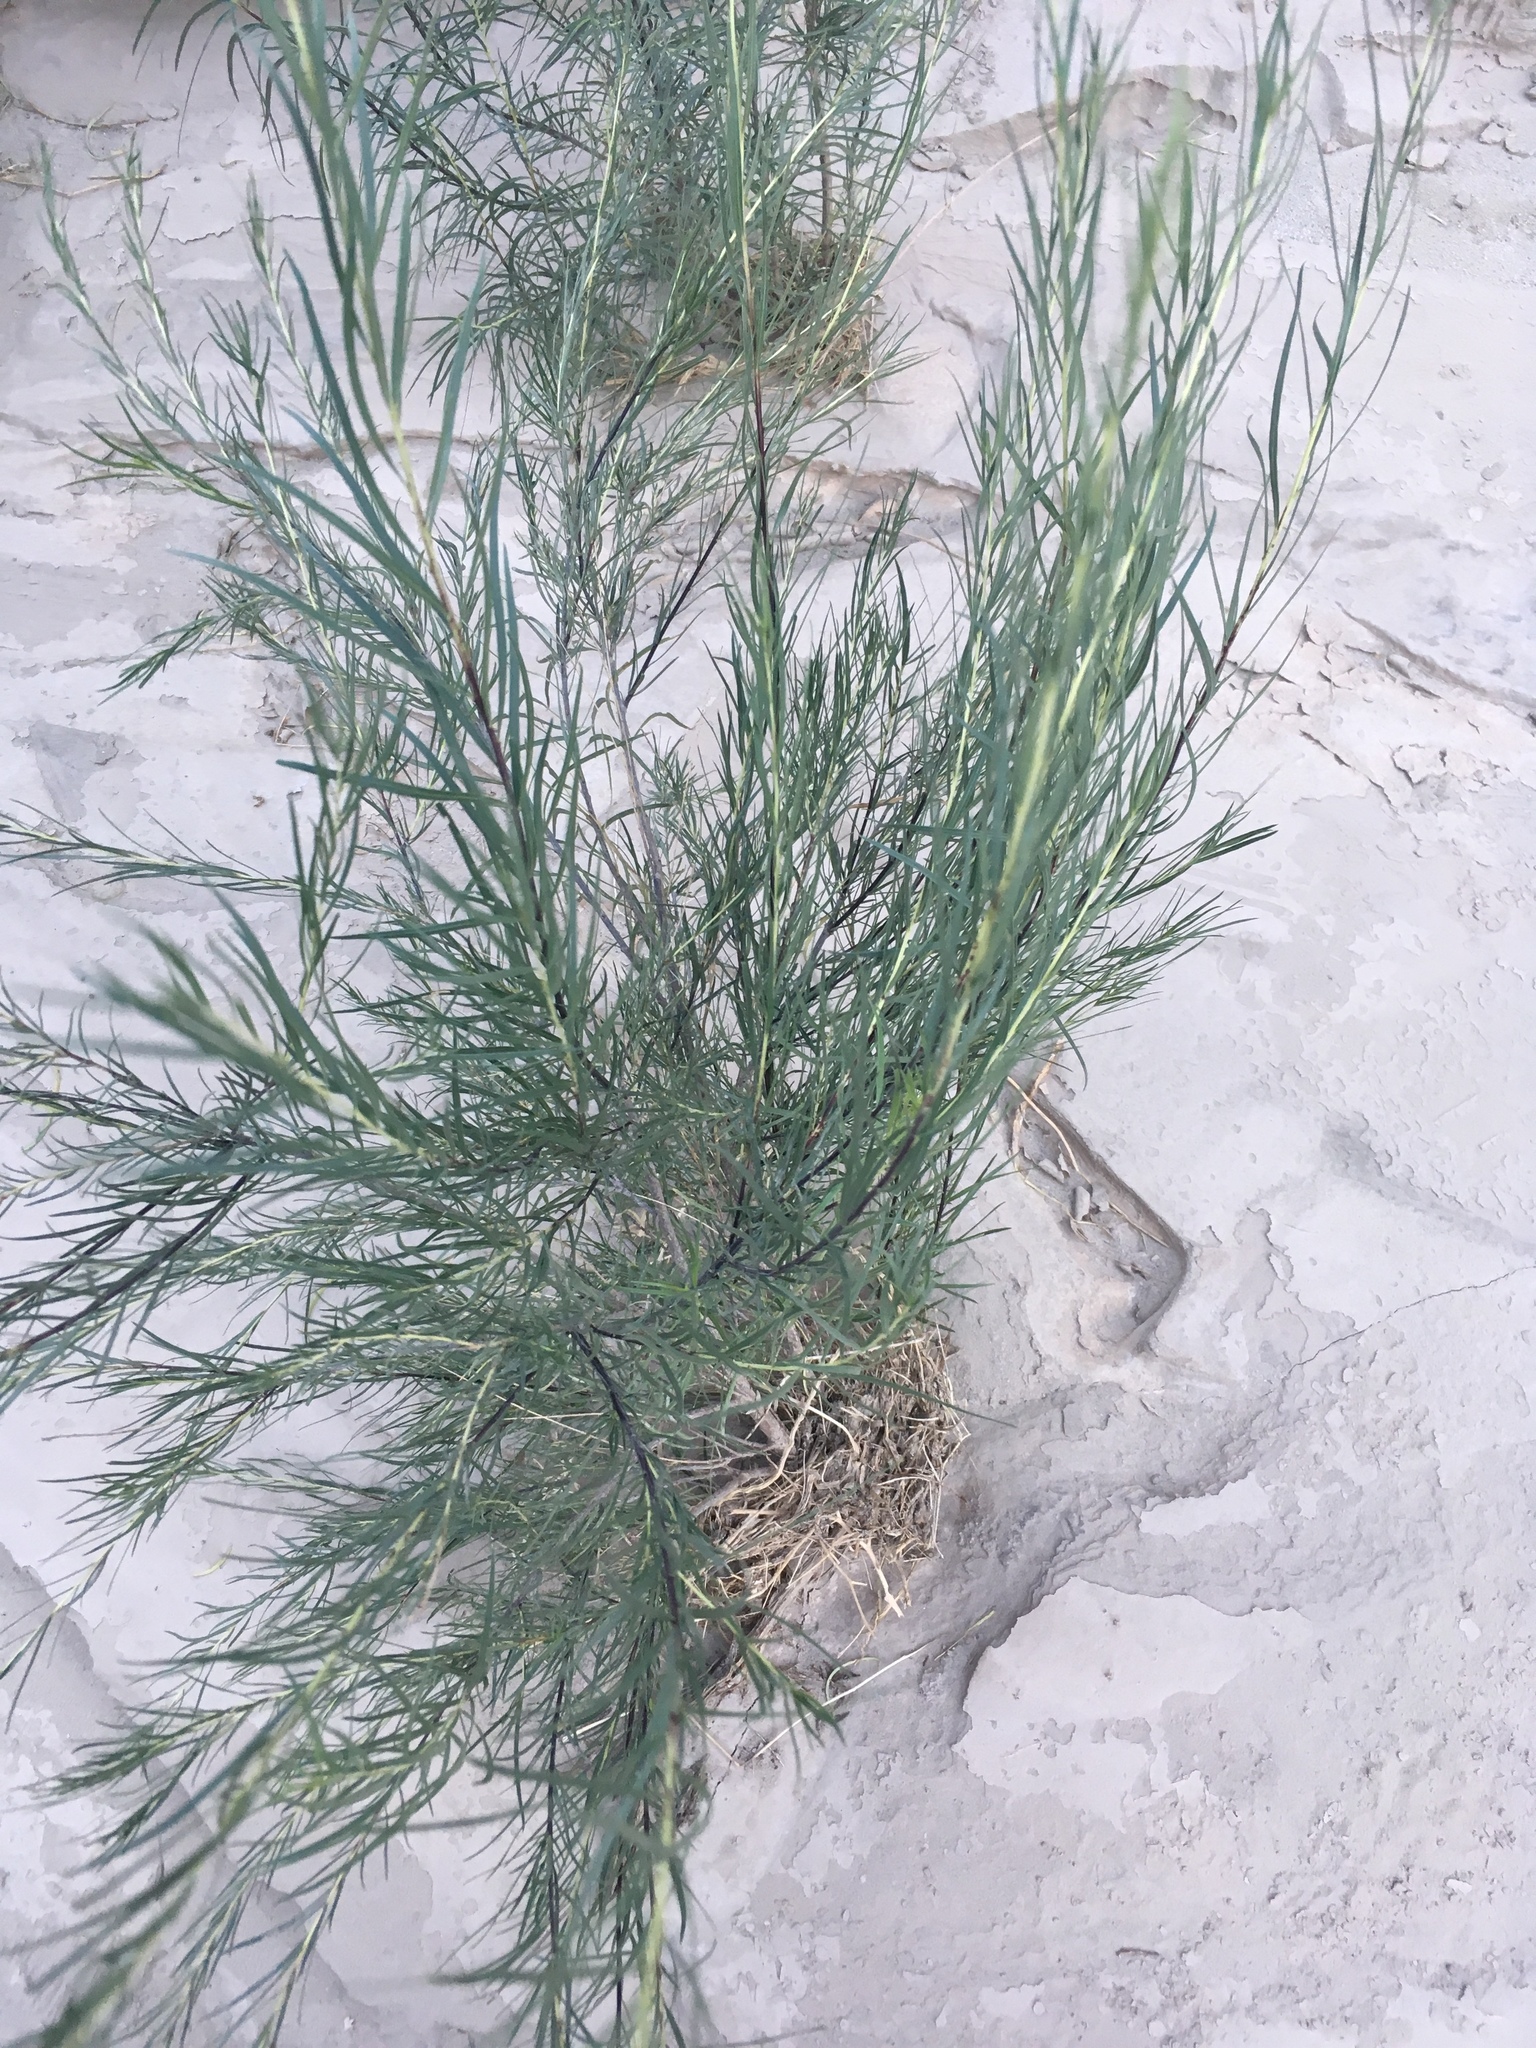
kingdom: Plantae
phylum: Tracheophyta
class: Magnoliopsida
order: Lamiales
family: Bignoniaceae
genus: Chilopsis
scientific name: Chilopsis linearis
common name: Desert-willow
